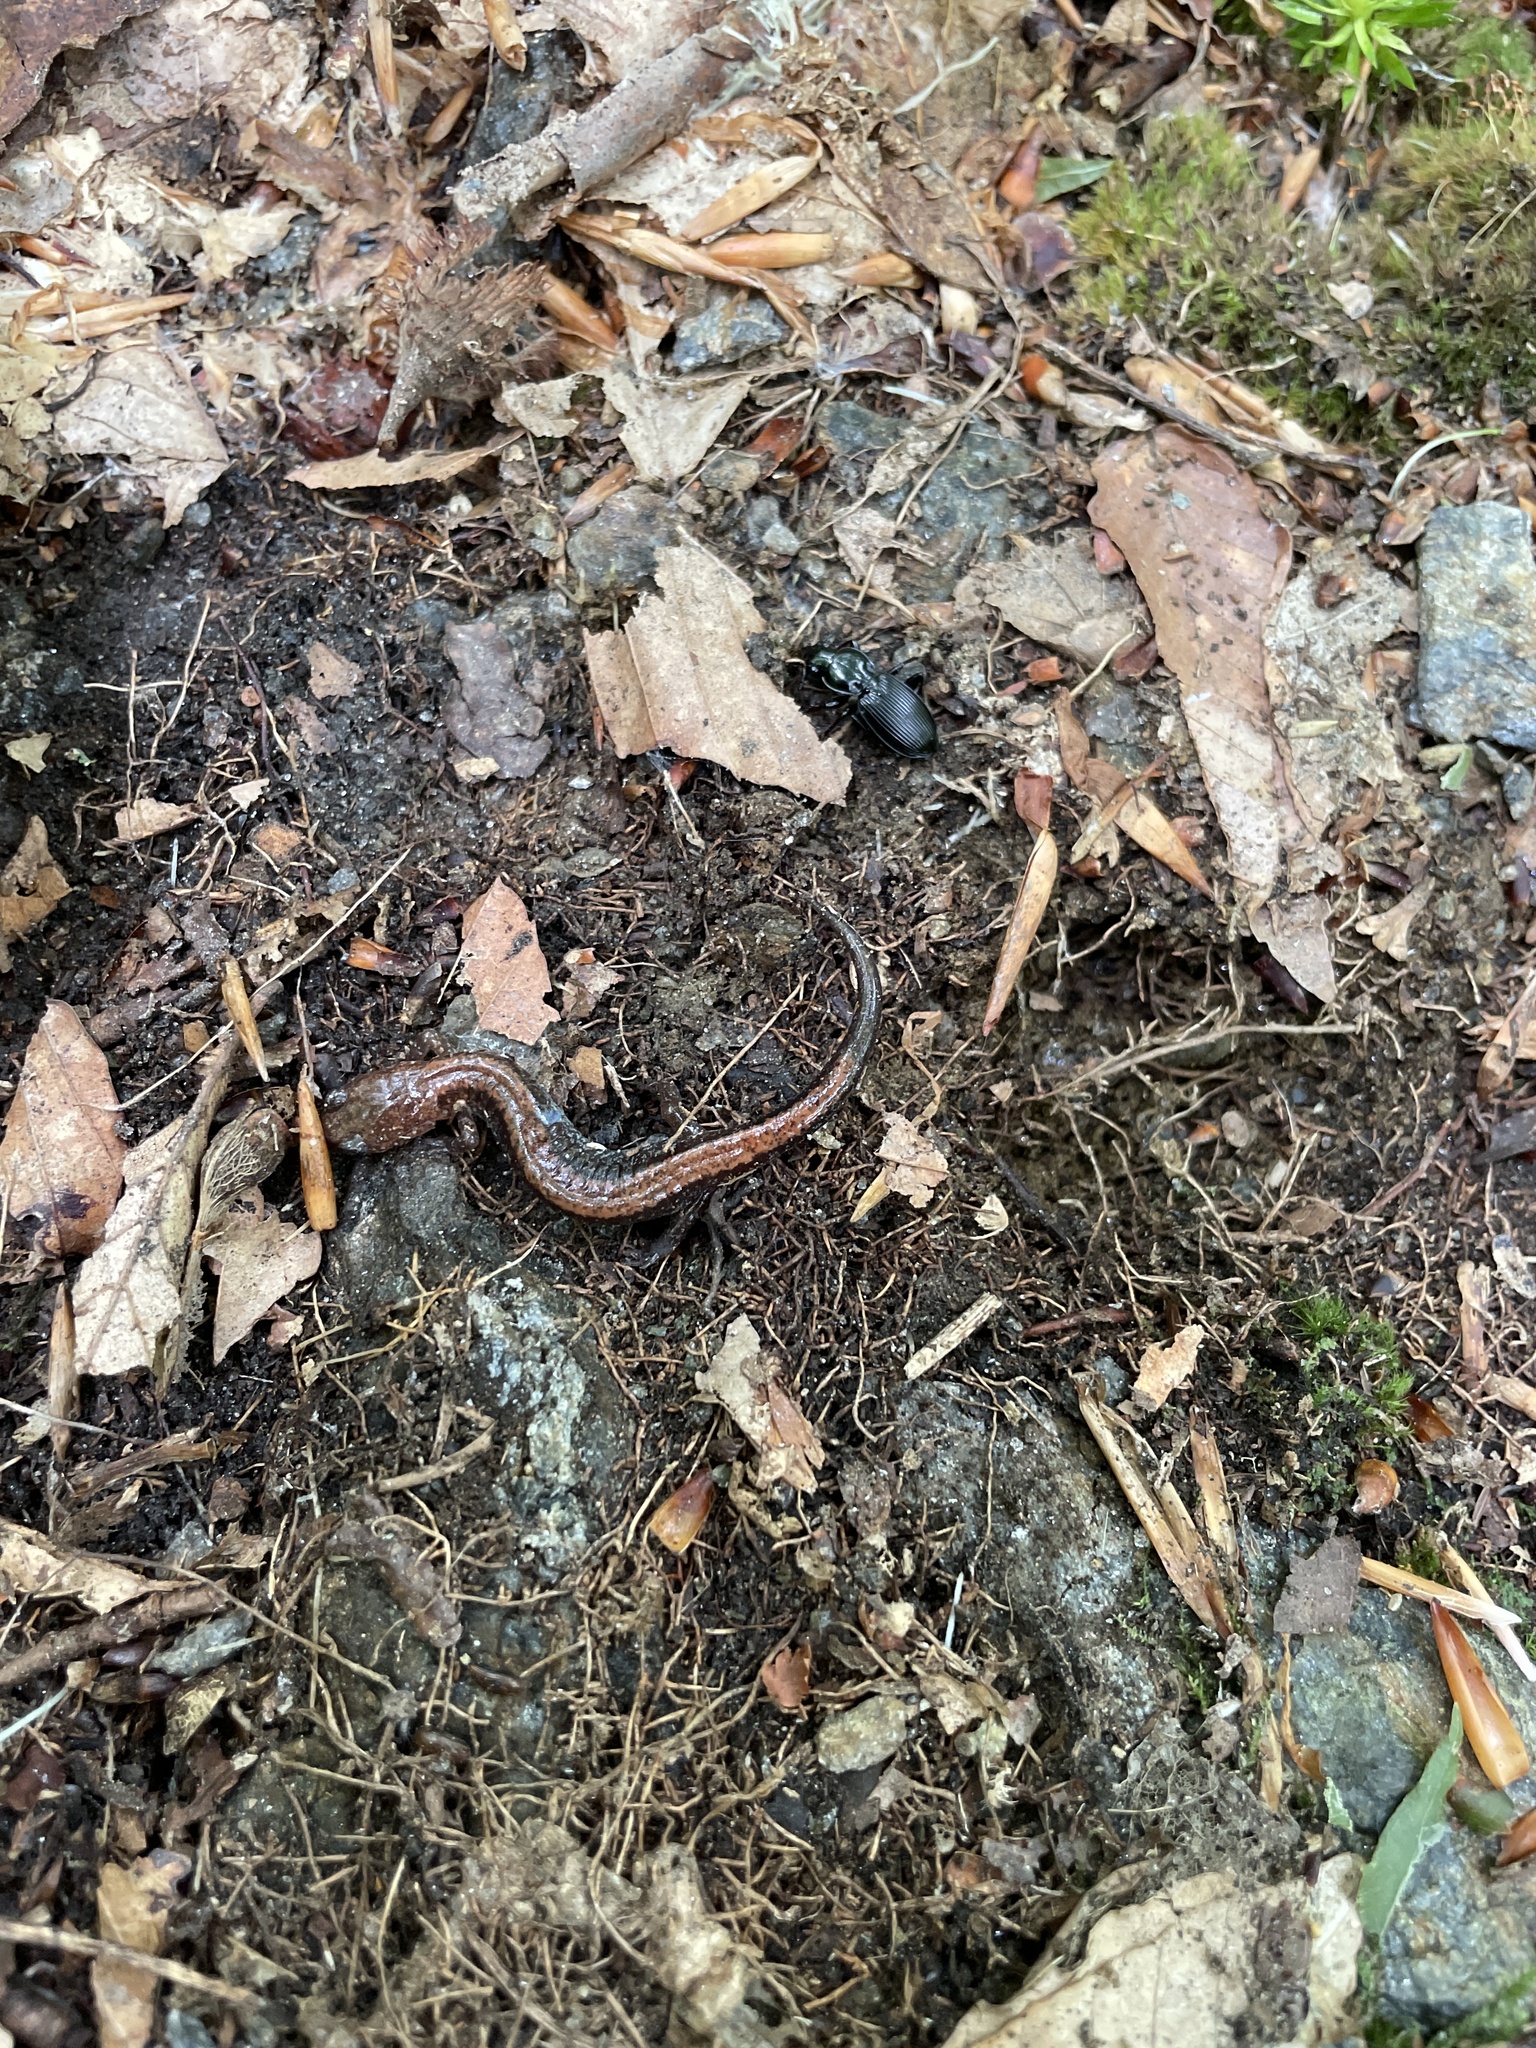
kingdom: Animalia
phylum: Chordata
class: Amphibia
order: Caudata
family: Plethodontidae
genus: Plethodon
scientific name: Plethodon cinereus
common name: Redback salamander
